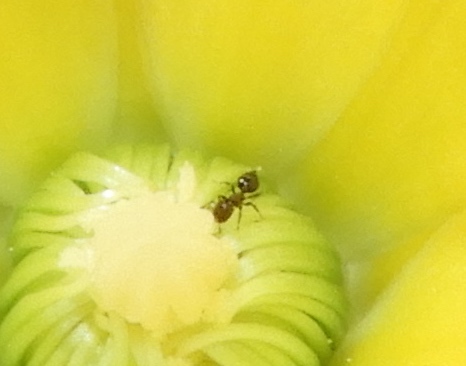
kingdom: Animalia
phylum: Arthropoda
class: Insecta
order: Hymenoptera
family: Formicidae
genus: Crematogaster
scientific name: Crematogaster
